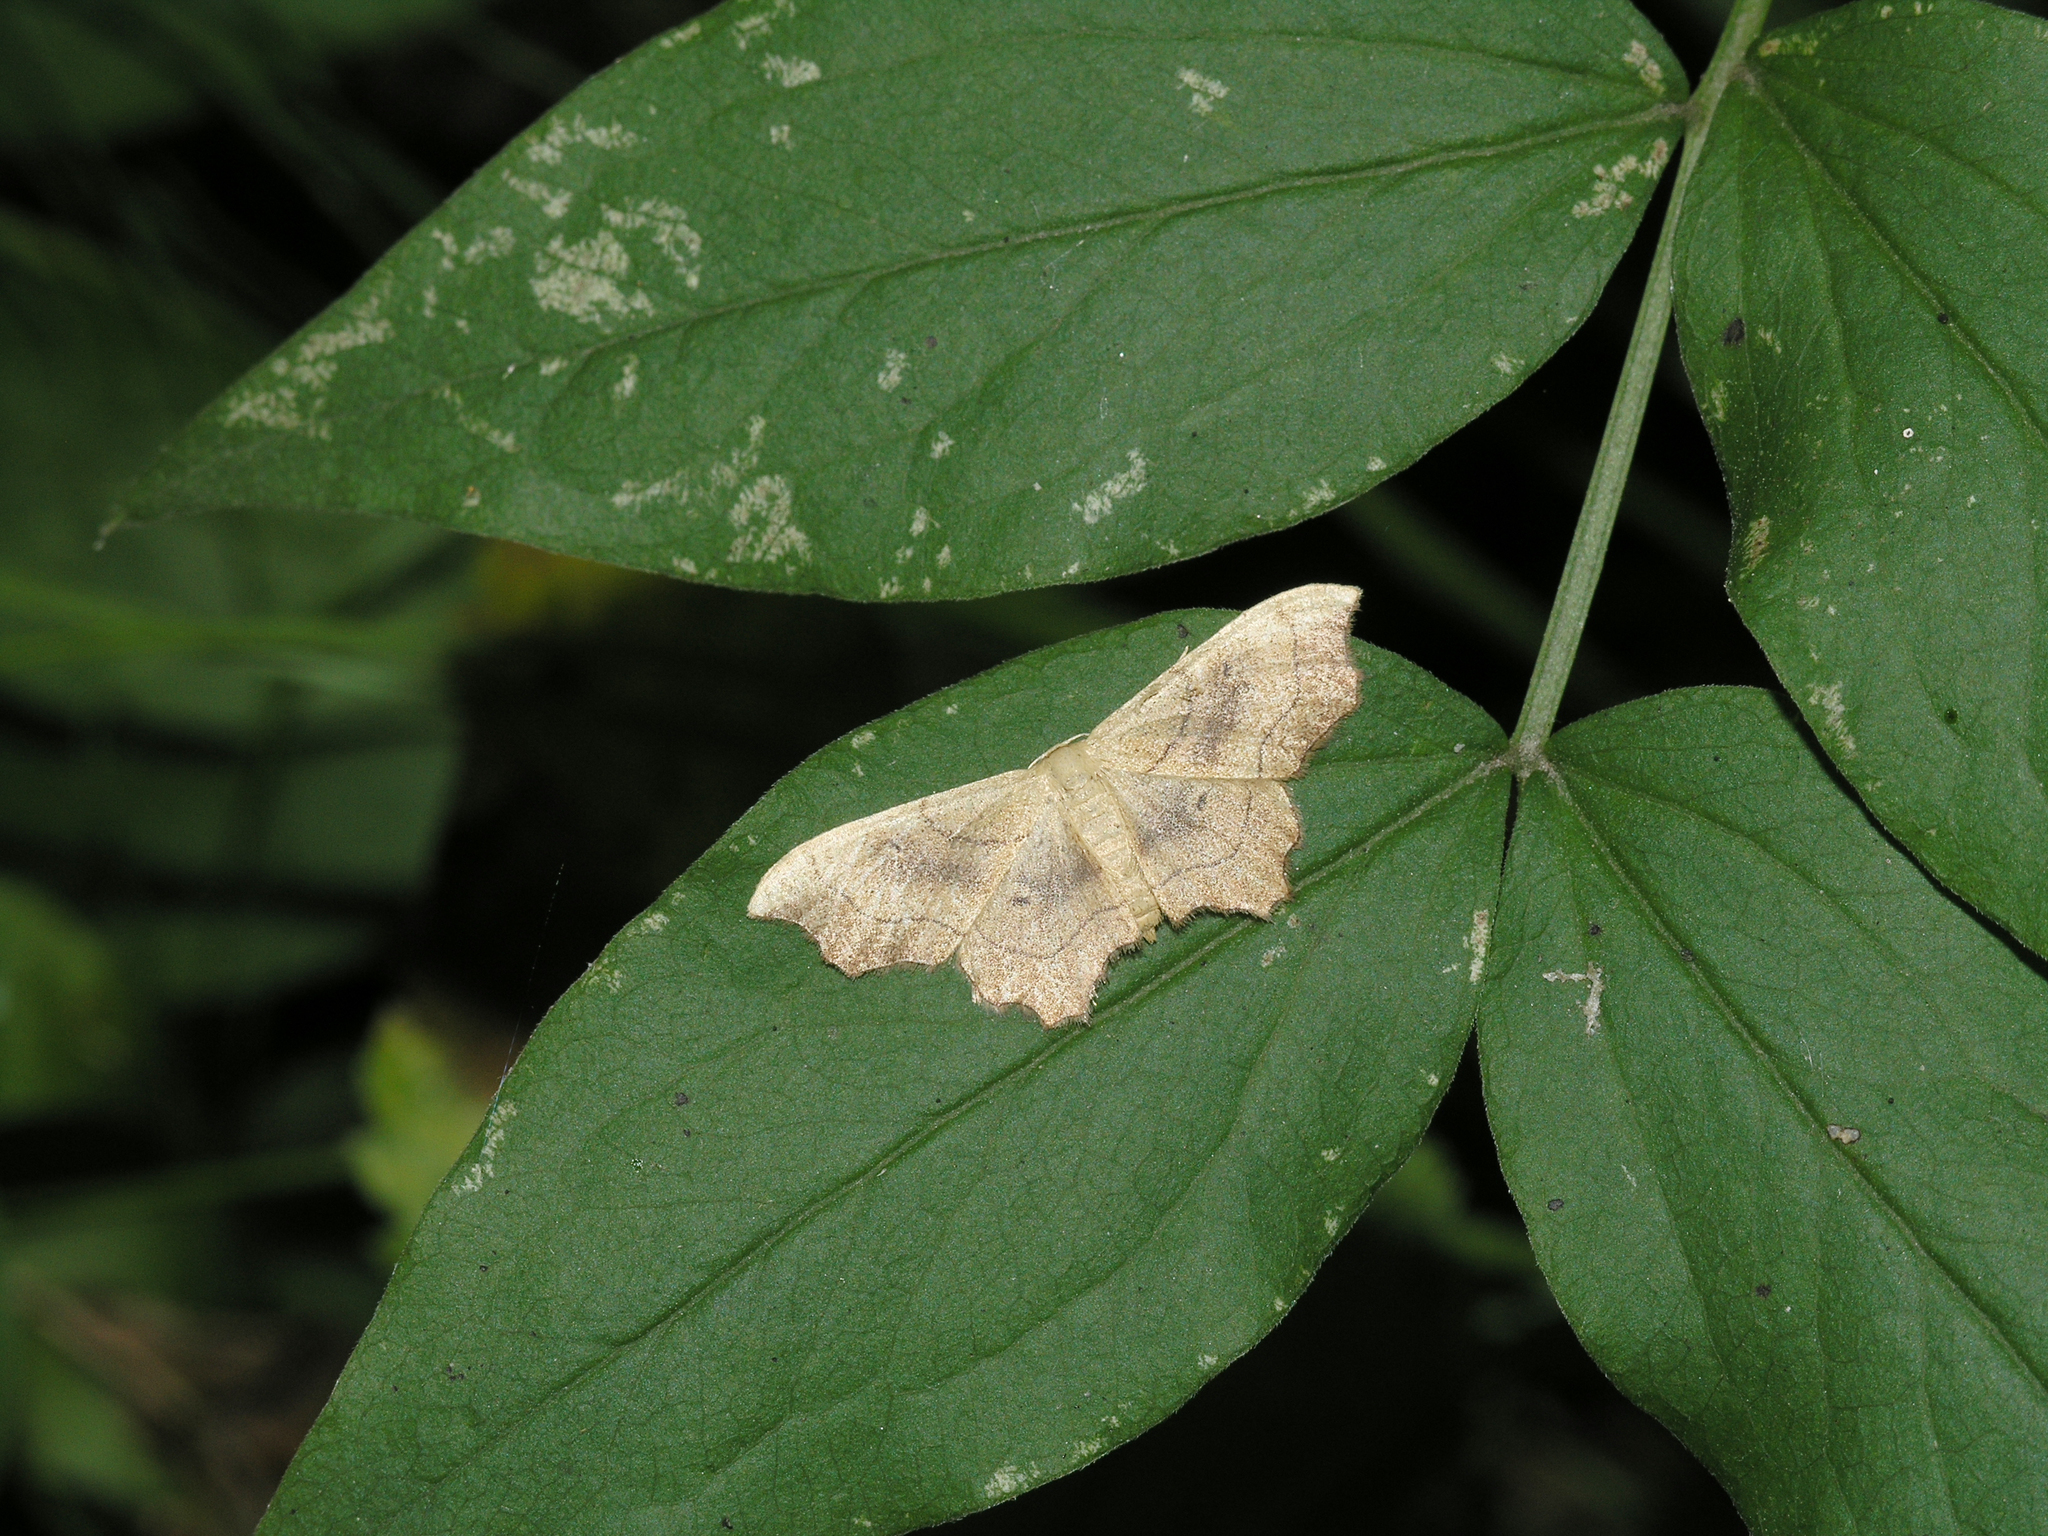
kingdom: Animalia
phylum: Arthropoda
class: Insecta
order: Lepidoptera
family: Geometridae
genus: Idaea
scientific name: Idaea emarginata
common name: Small scallop
